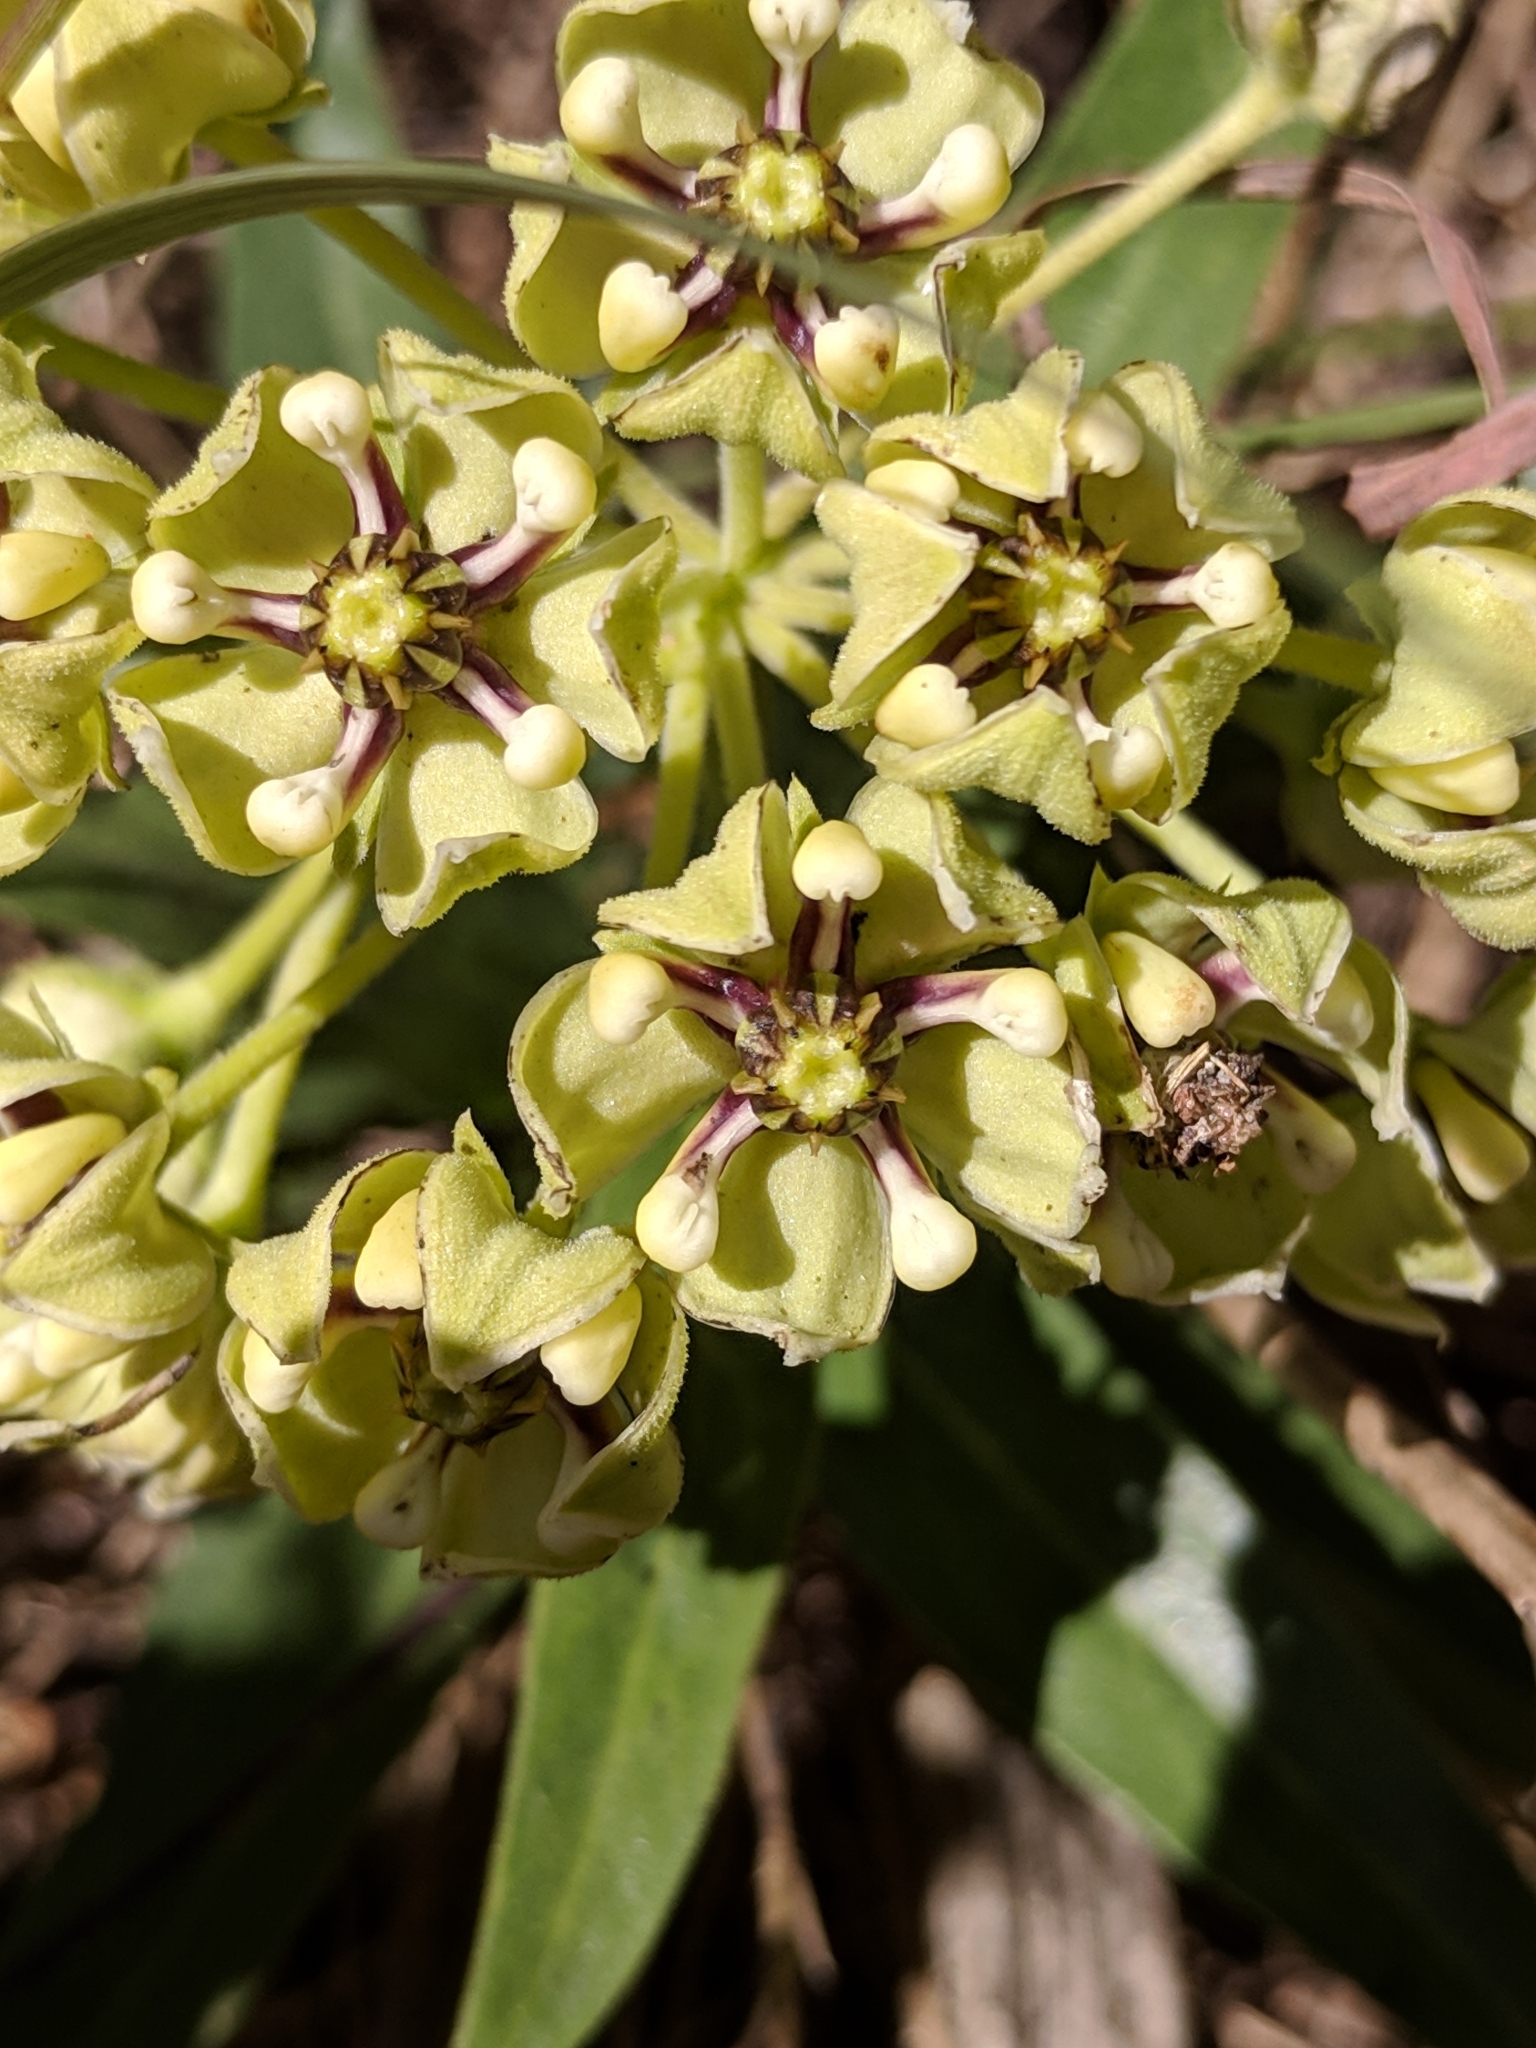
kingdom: Plantae
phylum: Tracheophyta
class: Magnoliopsida
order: Gentianales
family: Apocynaceae
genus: Asclepias
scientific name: Asclepias asperula
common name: Antelope horns
